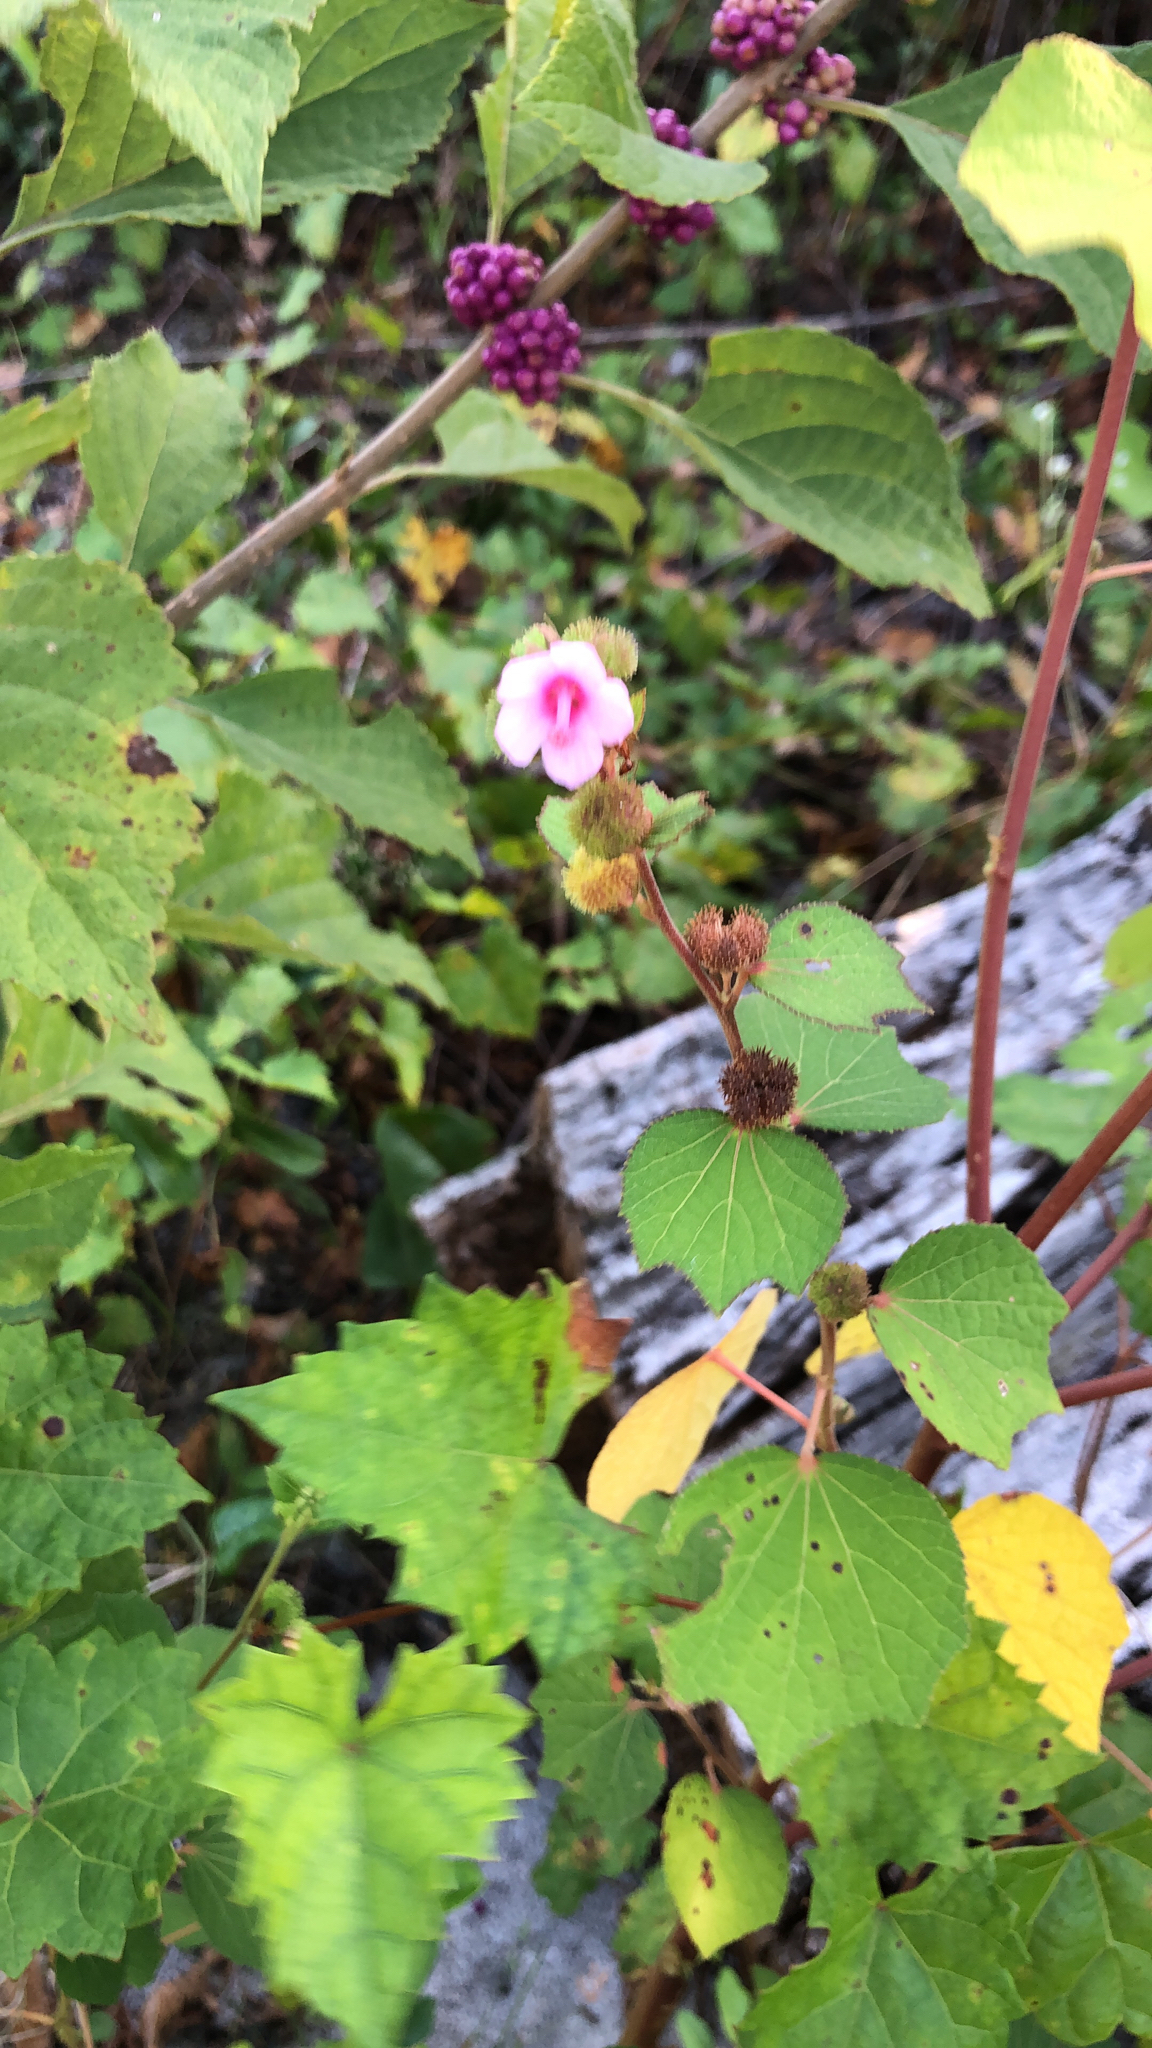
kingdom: Plantae
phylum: Tracheophyta
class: Magnoliopsida
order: Malvales
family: Malvaceae
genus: Urena
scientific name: Urena lobata
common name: Caesarweed
